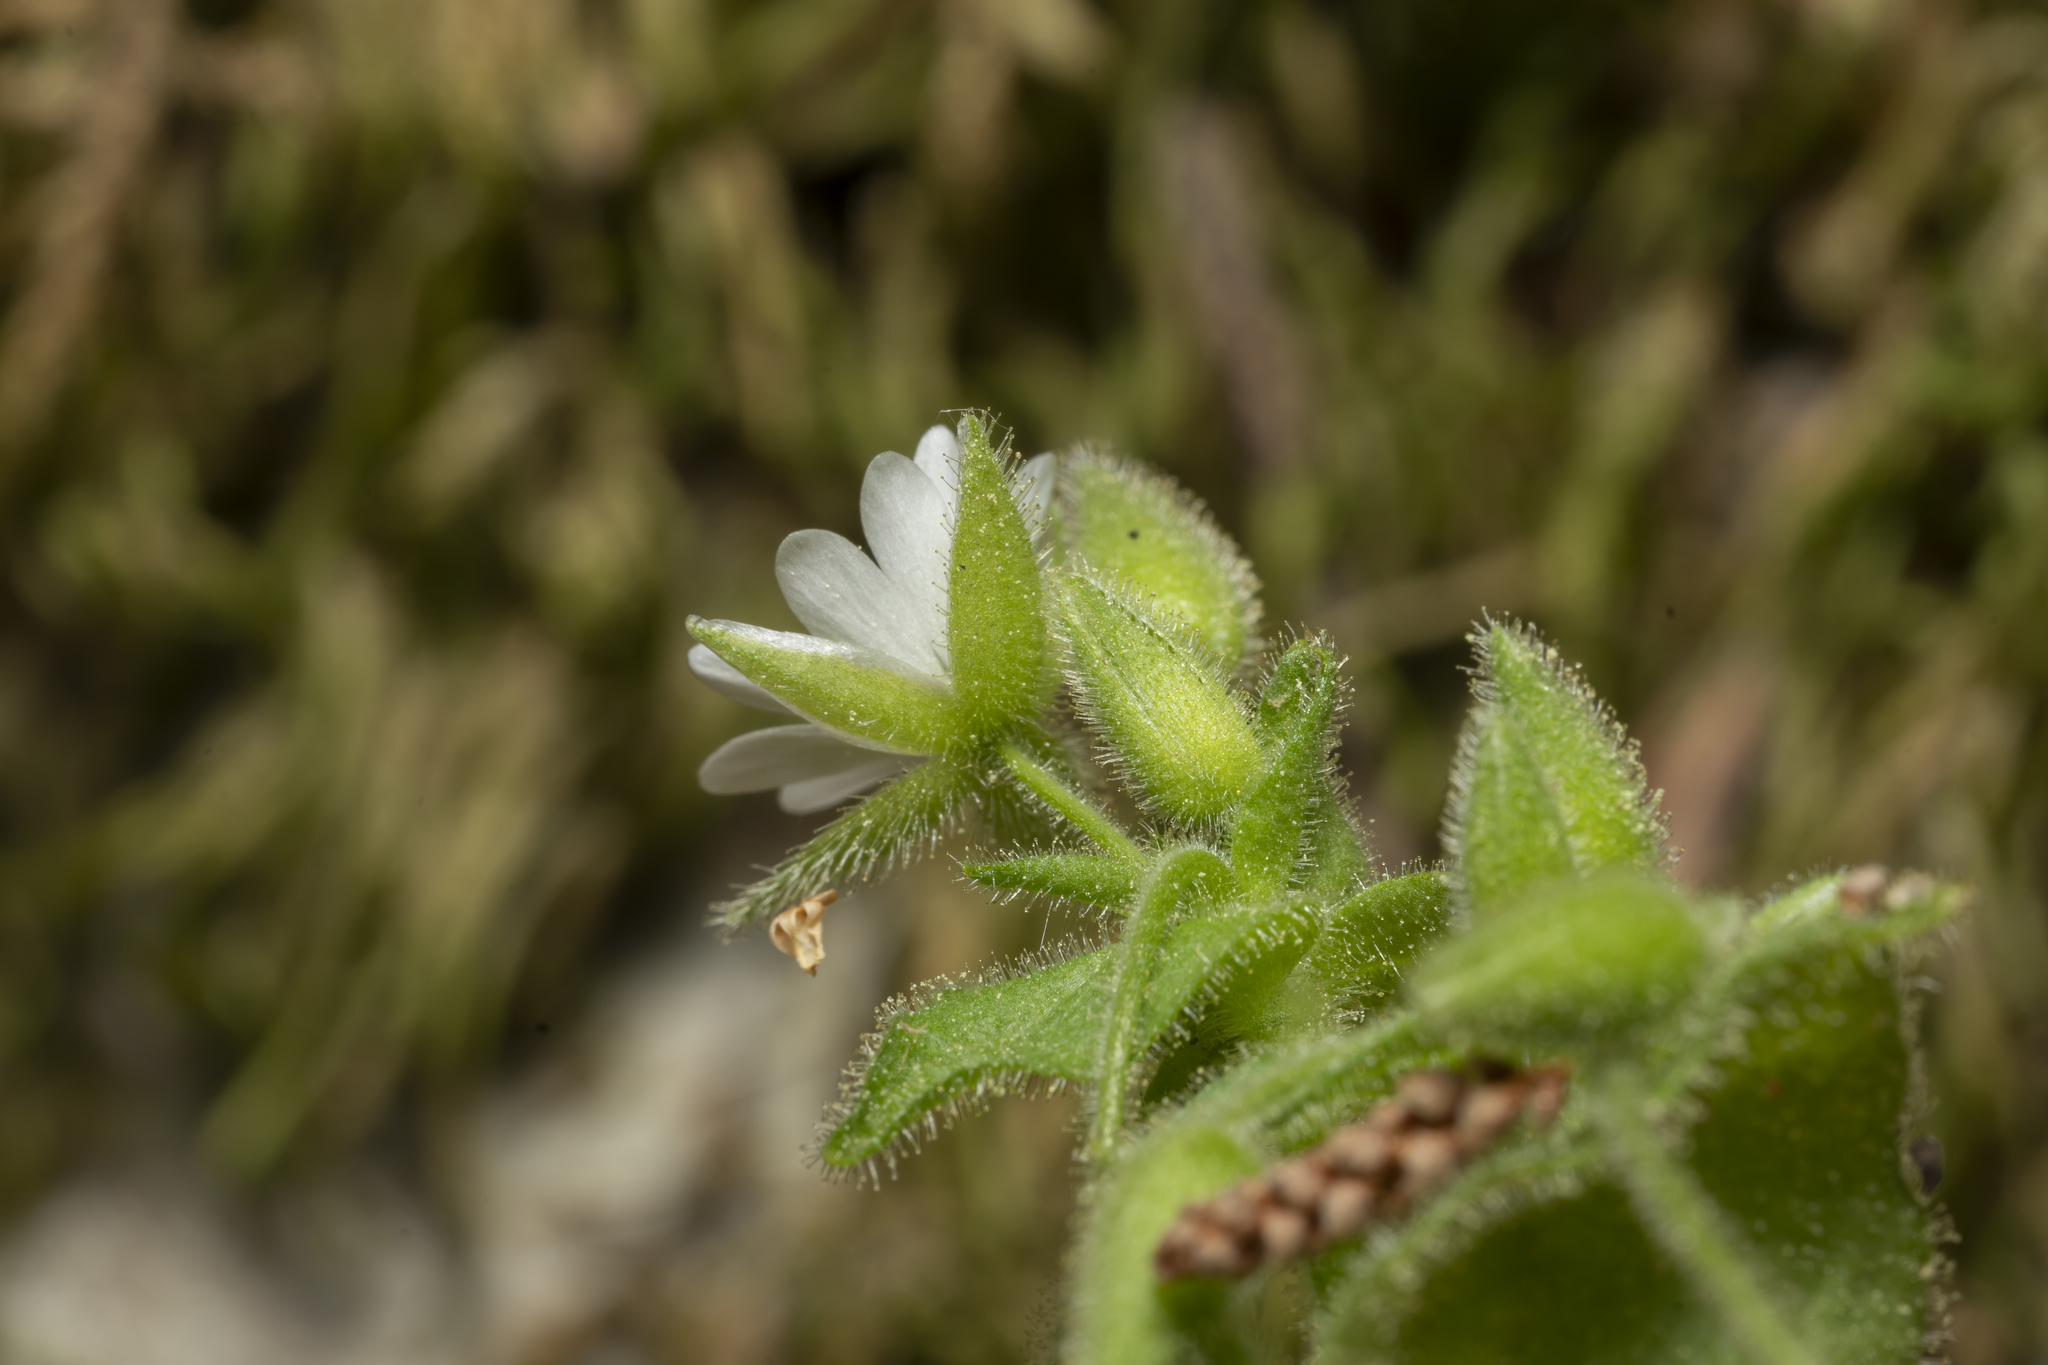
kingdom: Plantae
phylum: Tracheophyta
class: Magnoliopsida
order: Caryophyllales
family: Caryophyllaceae
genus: Stellaria
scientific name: Stellaria cupaniana
